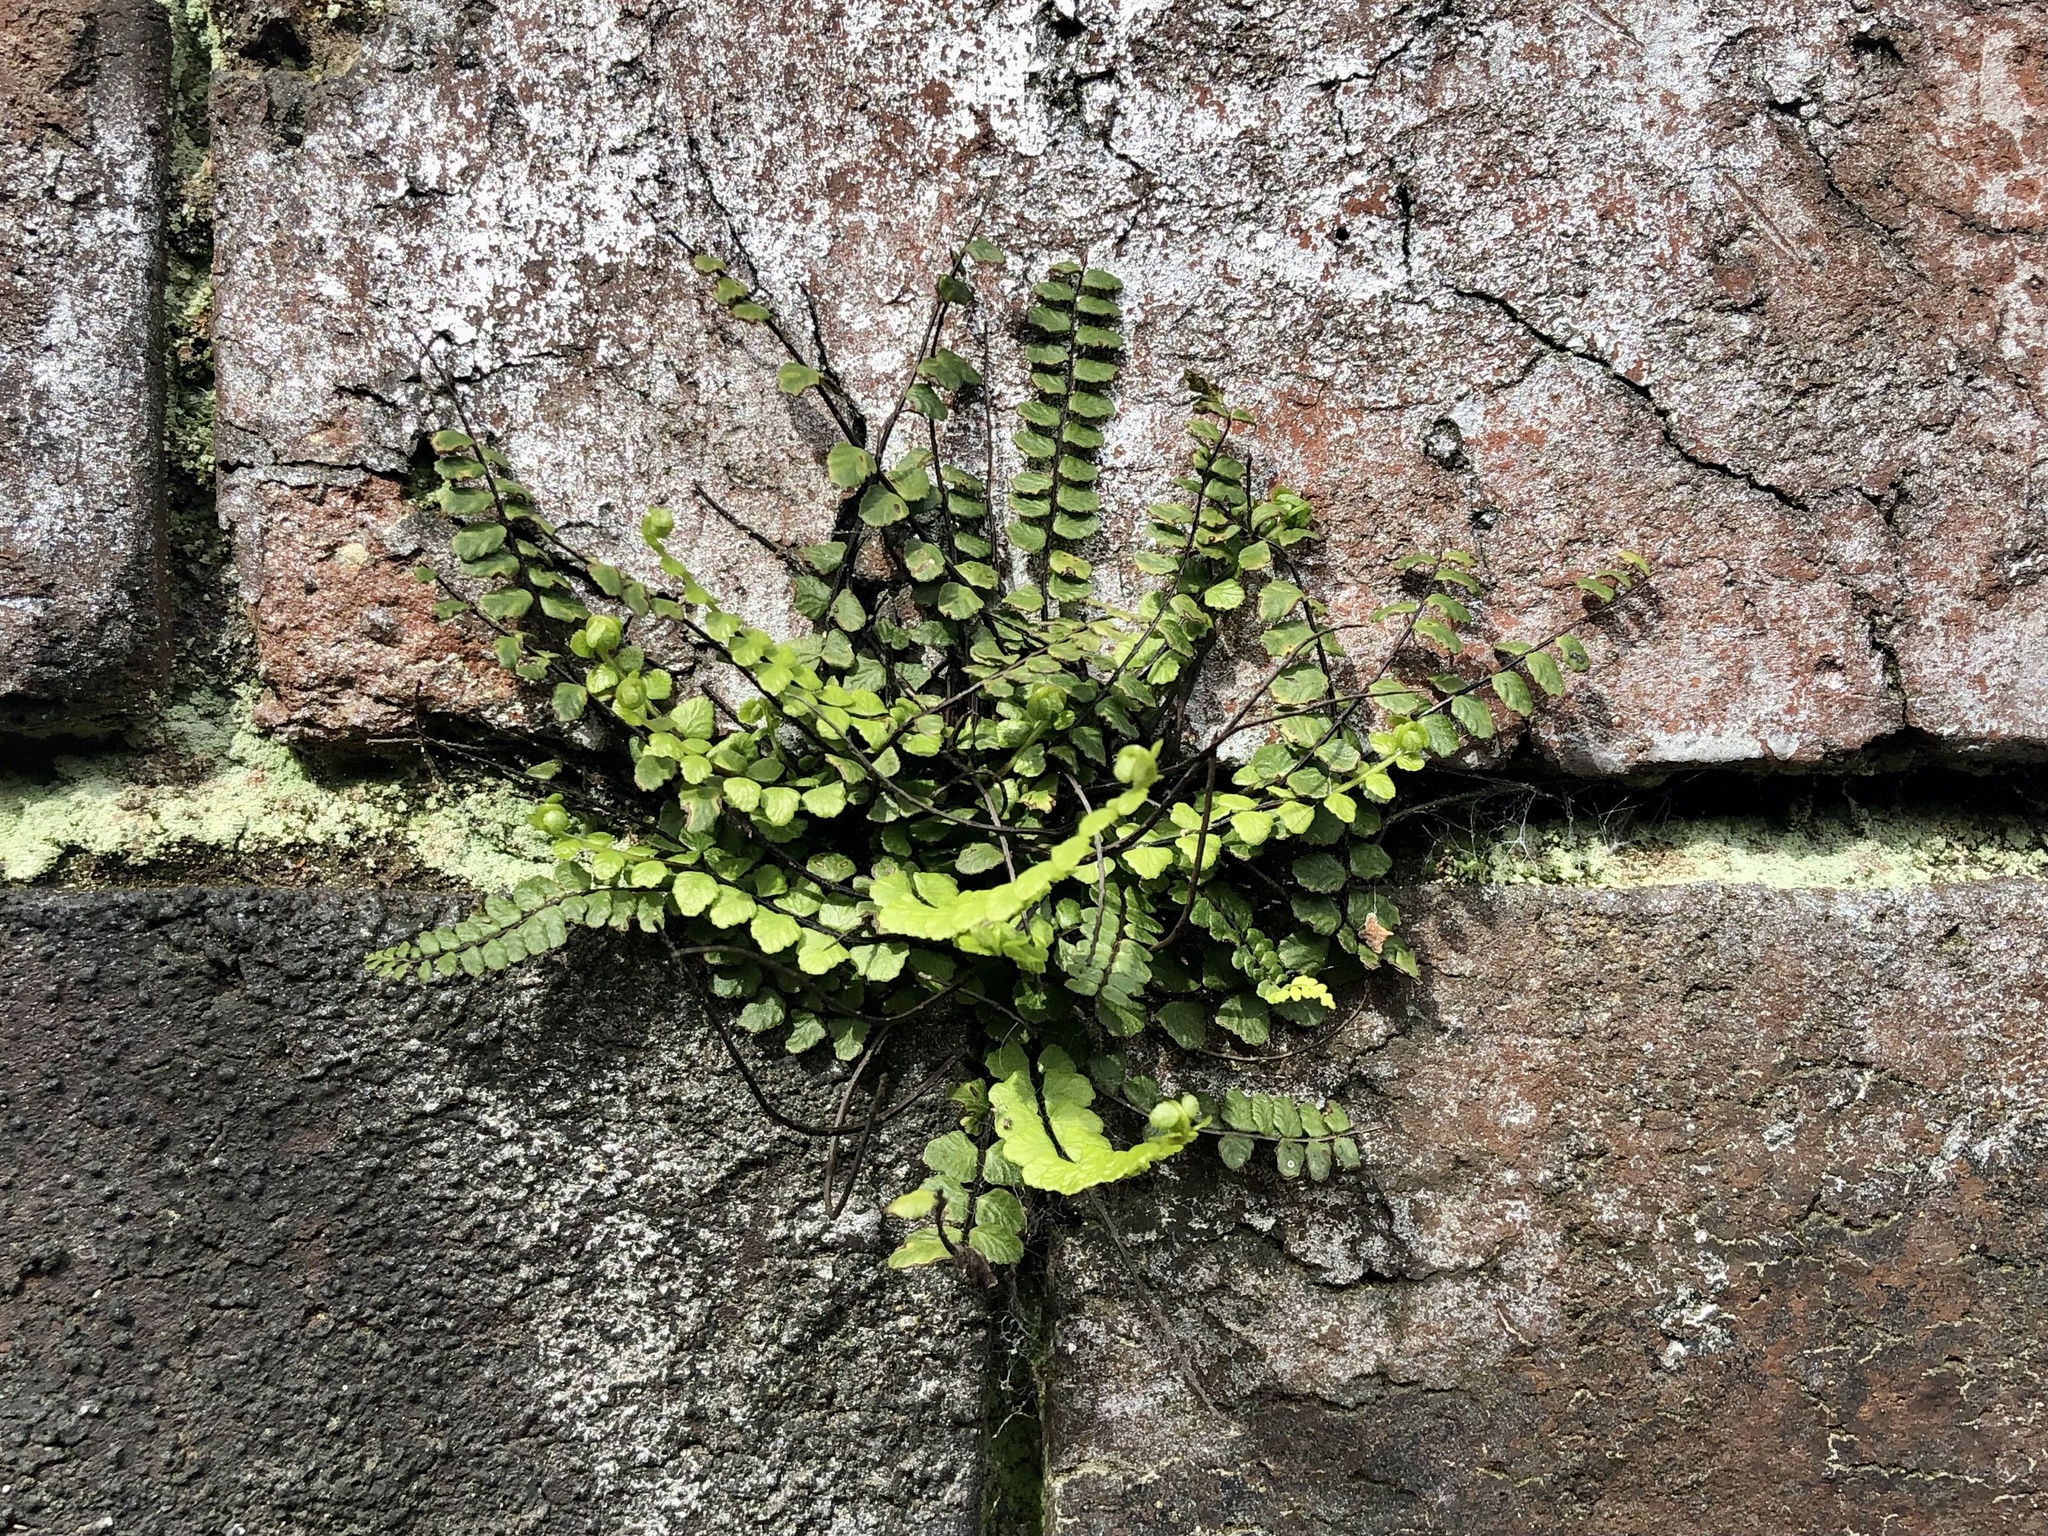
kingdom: Plantae
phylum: Tracheophyta
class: Polypodiopsida
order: Polypodiales
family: Aspleniaceae
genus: Asplenium
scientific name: Asplenium trichomanes
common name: Maidenhair spleenwort
